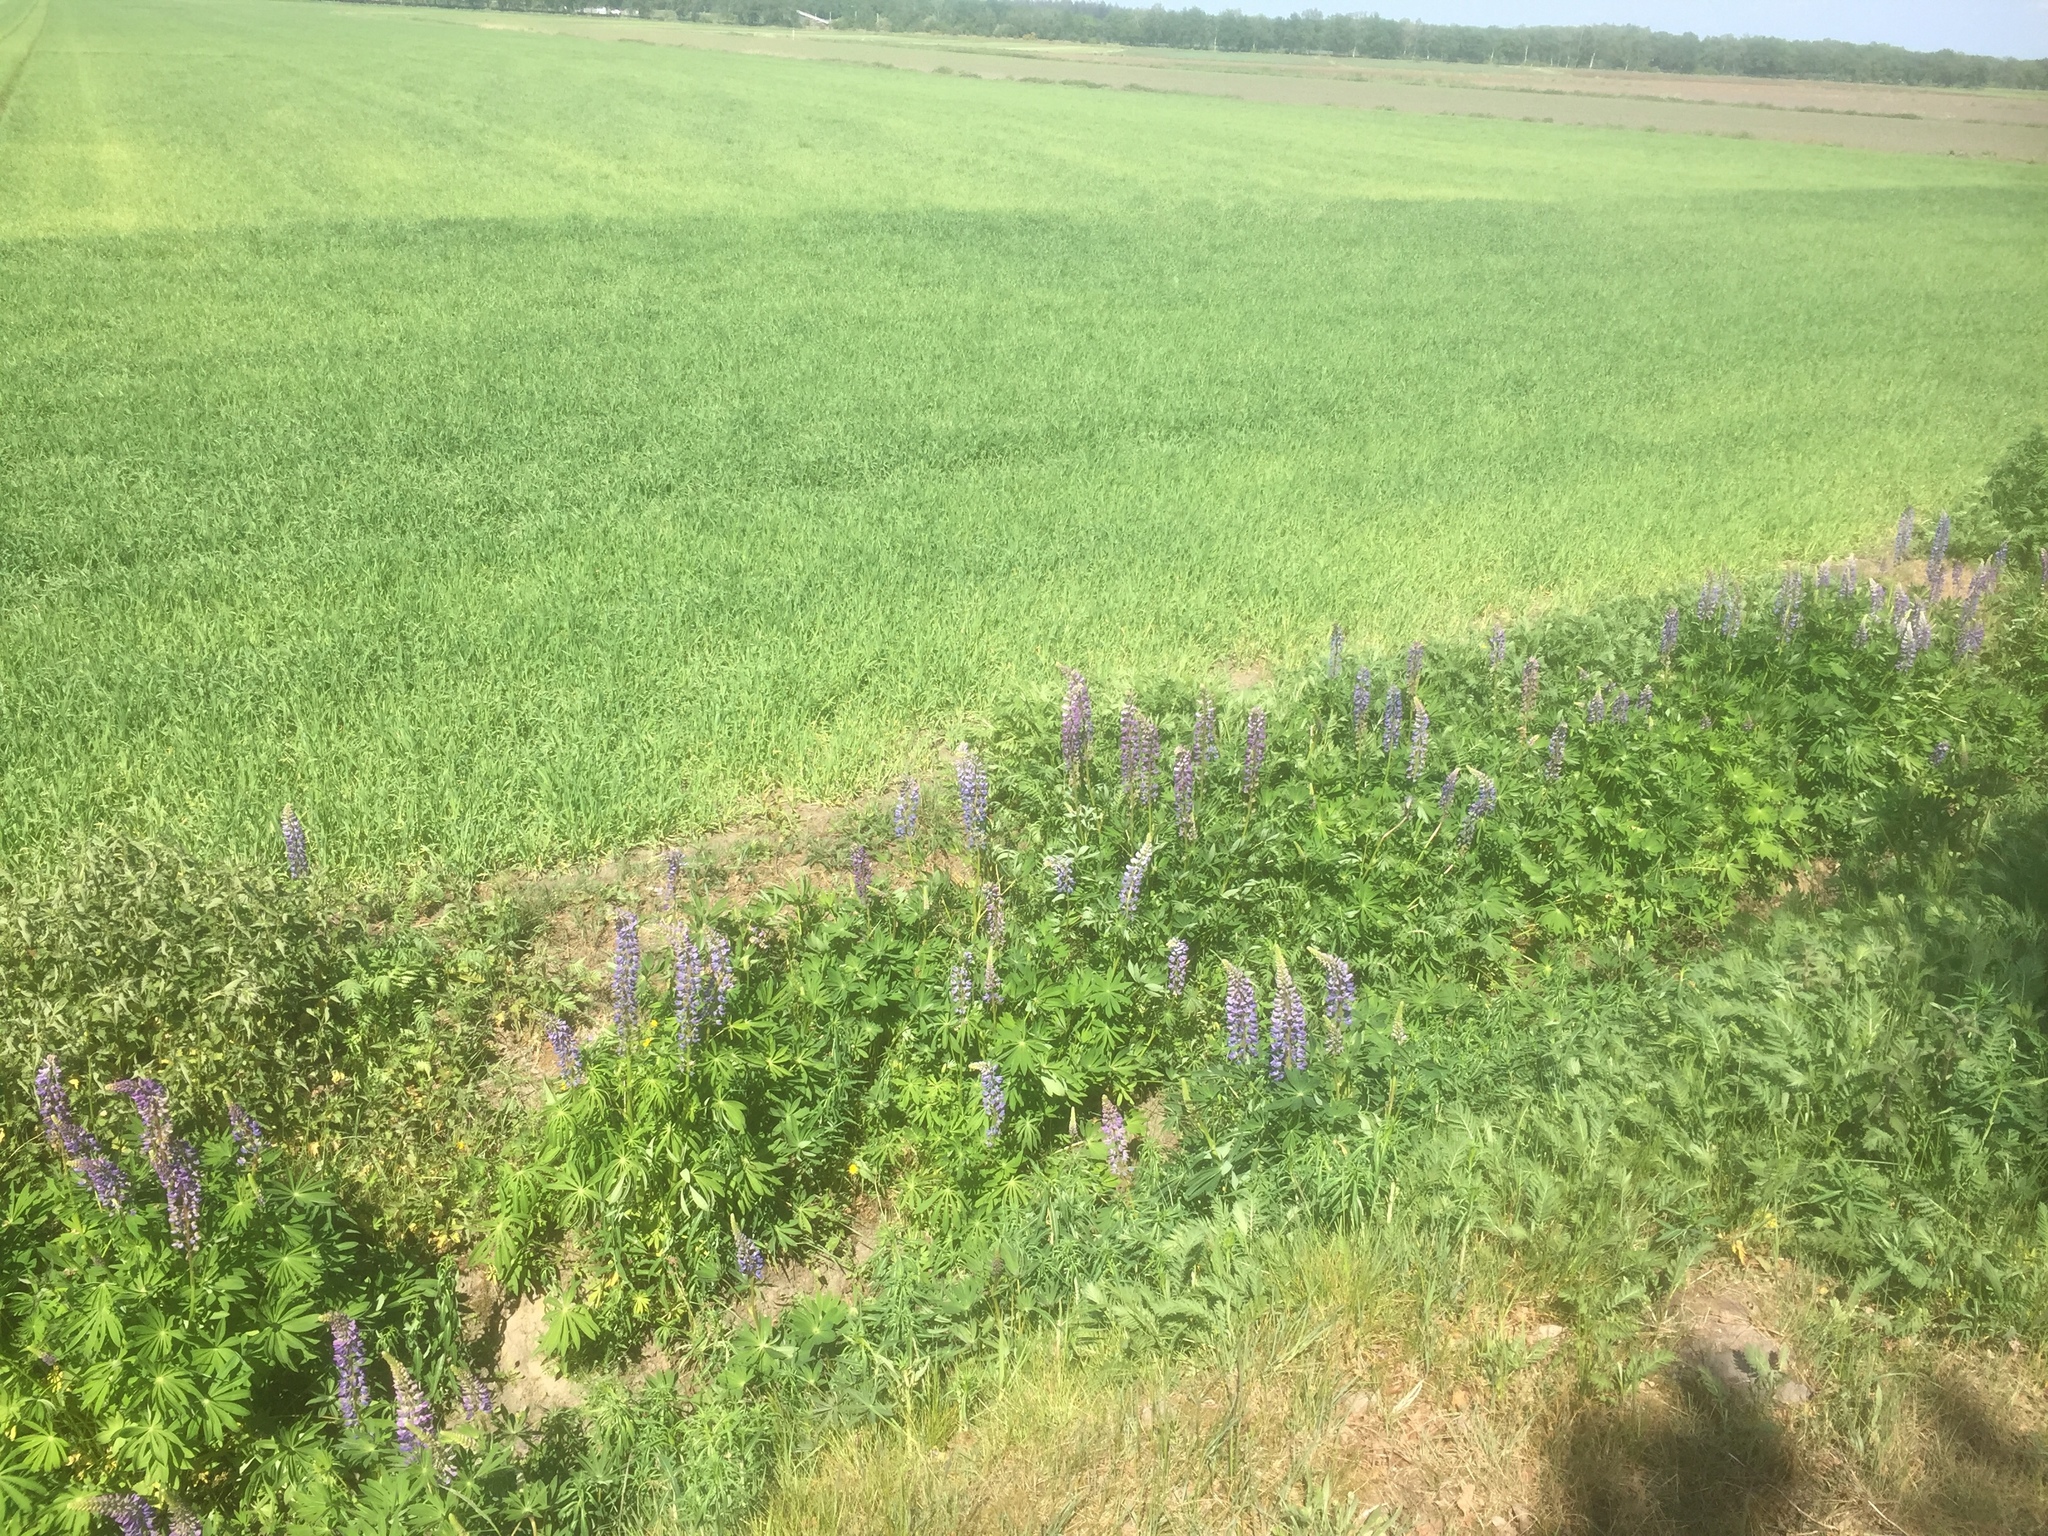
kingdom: Plantae
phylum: Tracheophyta
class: Magnoliopsida
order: Fabales
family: Fabaceae
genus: Lupinus
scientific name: Lupinus polyphyllus
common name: Garden lupin
